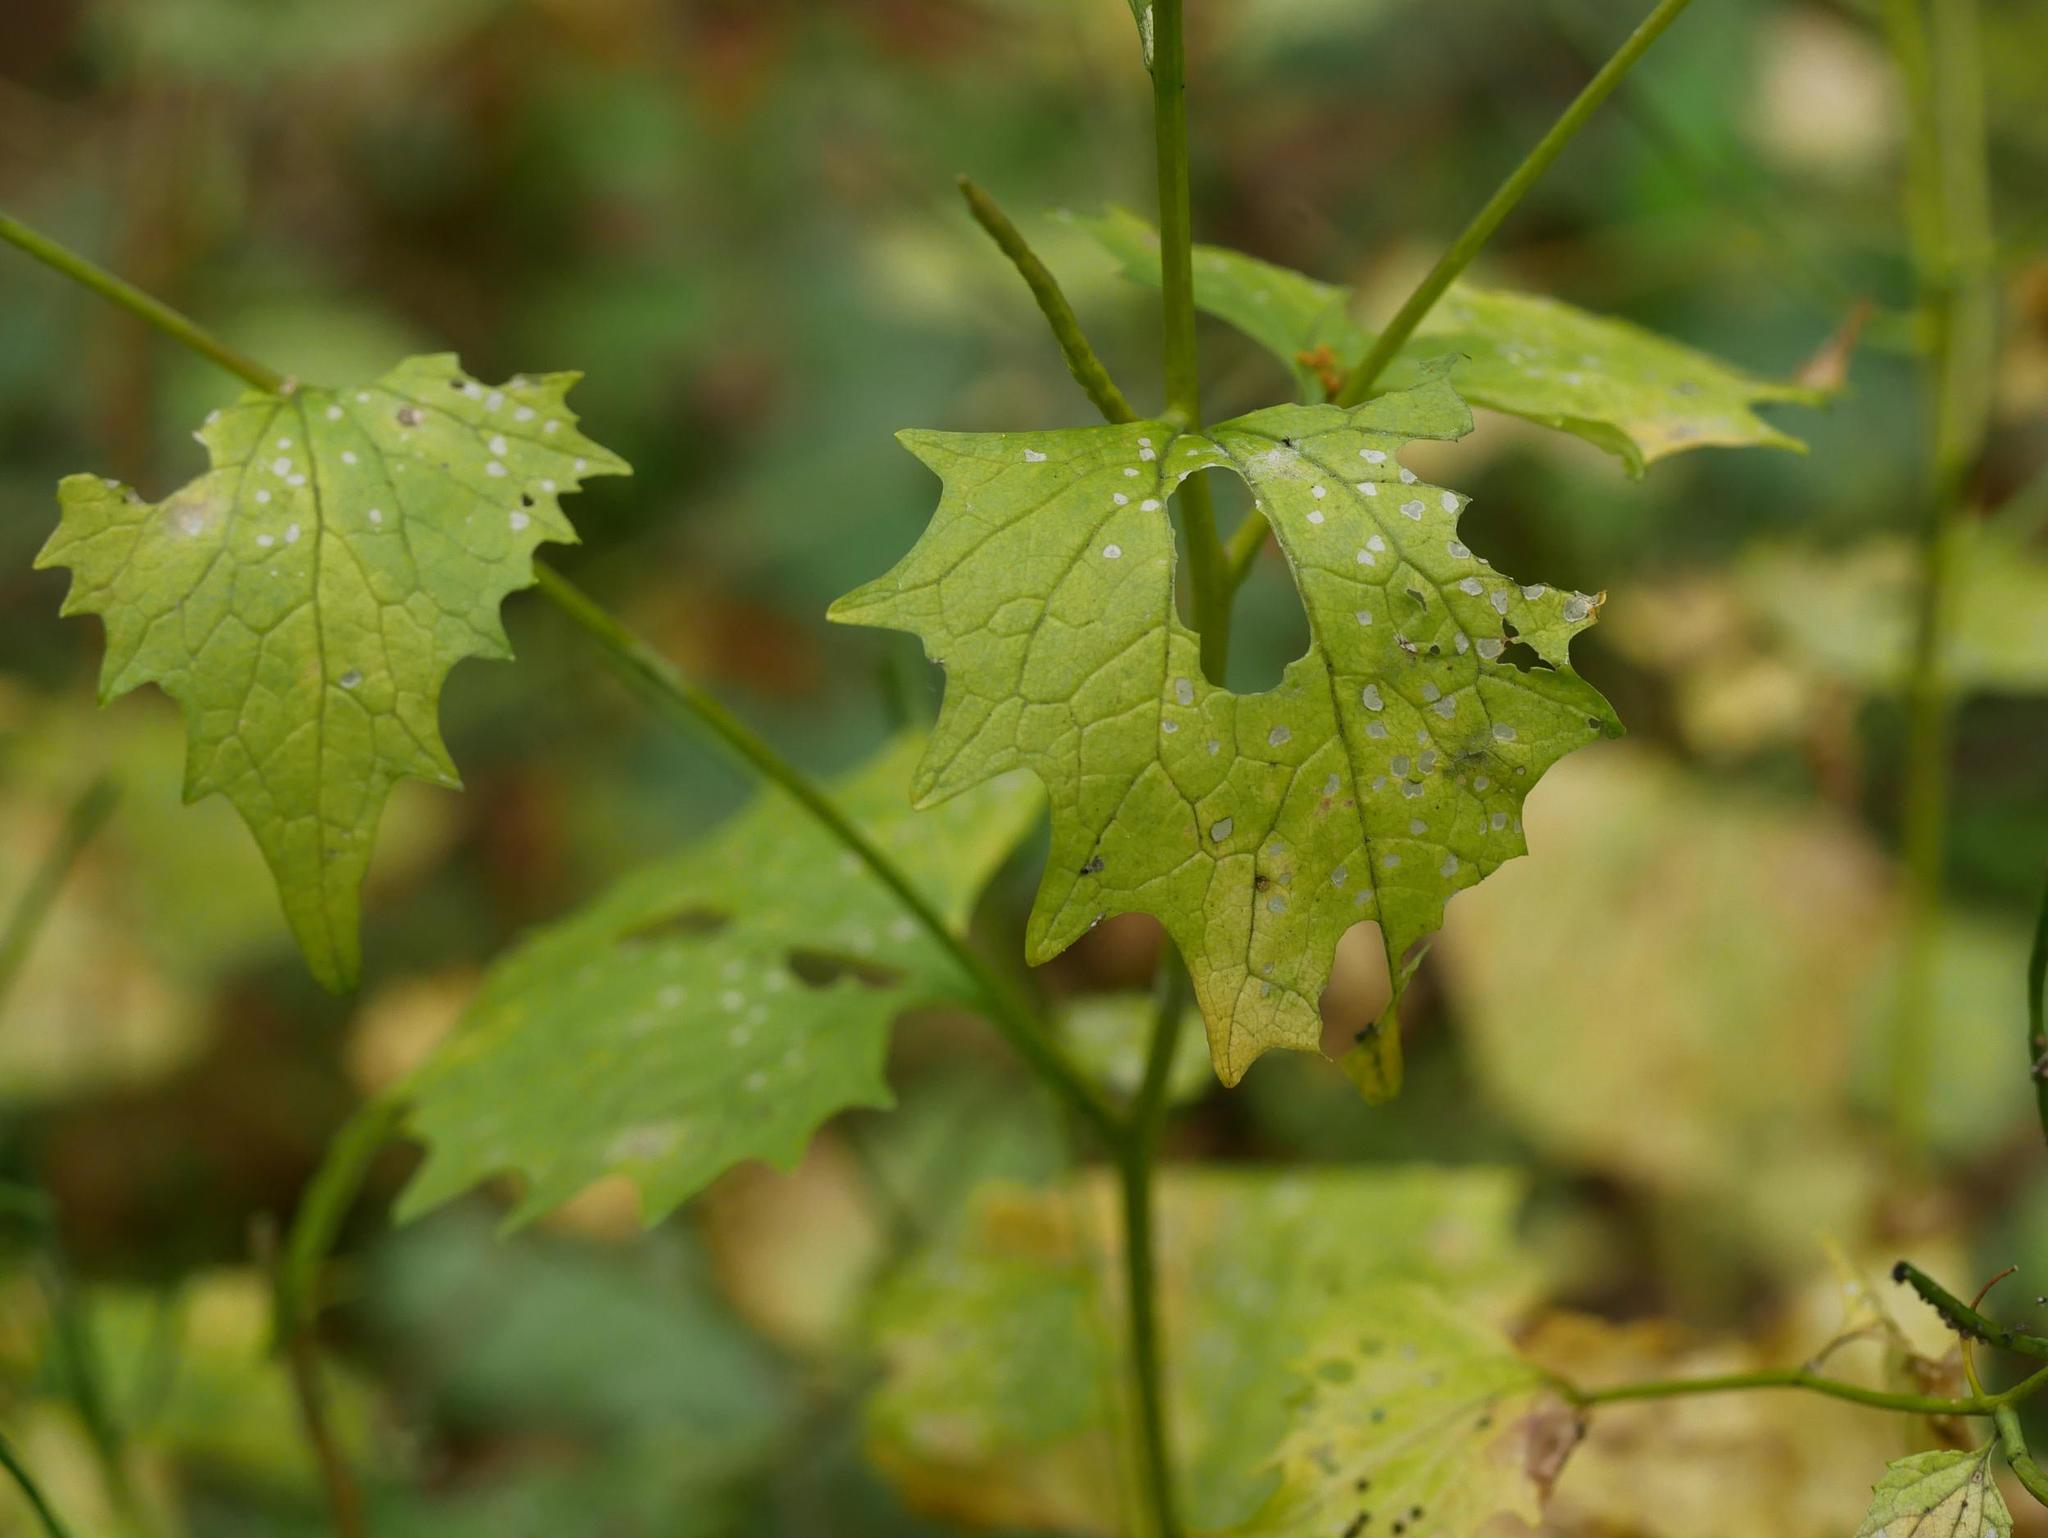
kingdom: Plantae
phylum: Tracheophyta
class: Magnoliopsida
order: Brassicales
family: Brassicaceae
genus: Alliaria
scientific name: Alliaria petiolata
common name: Garlic mustard
